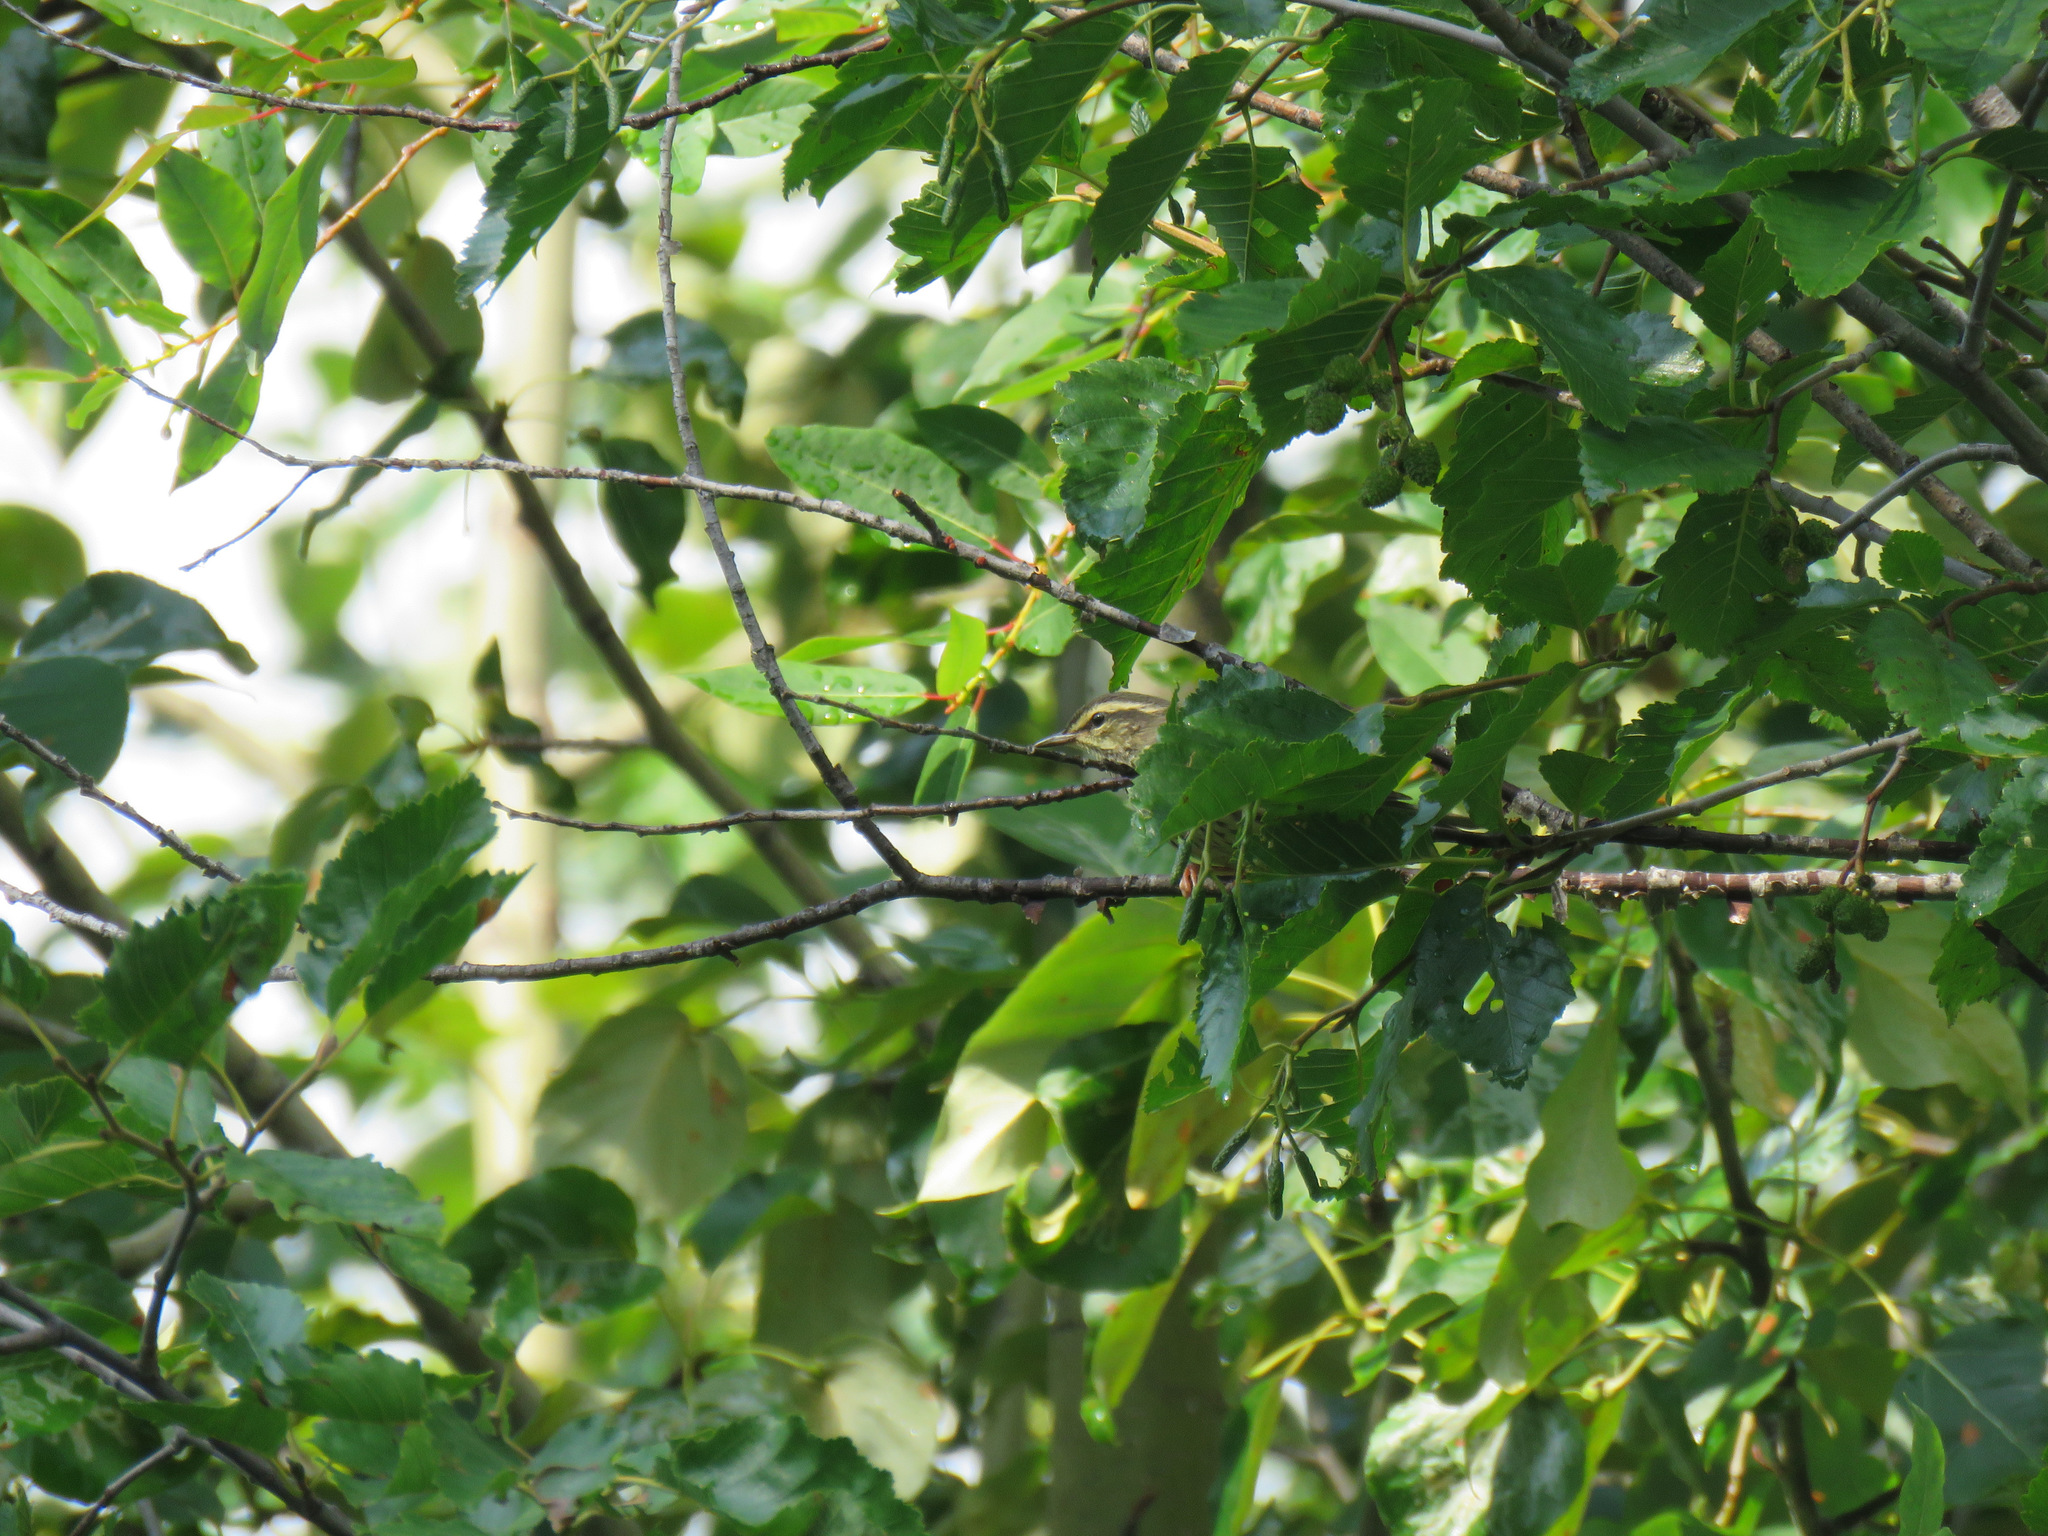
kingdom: Animalia
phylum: Chordata
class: Aves
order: Passeriformes
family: Parulidae
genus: Parkesia
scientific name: Parkesia noveboracensis
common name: Northern waterthrush
